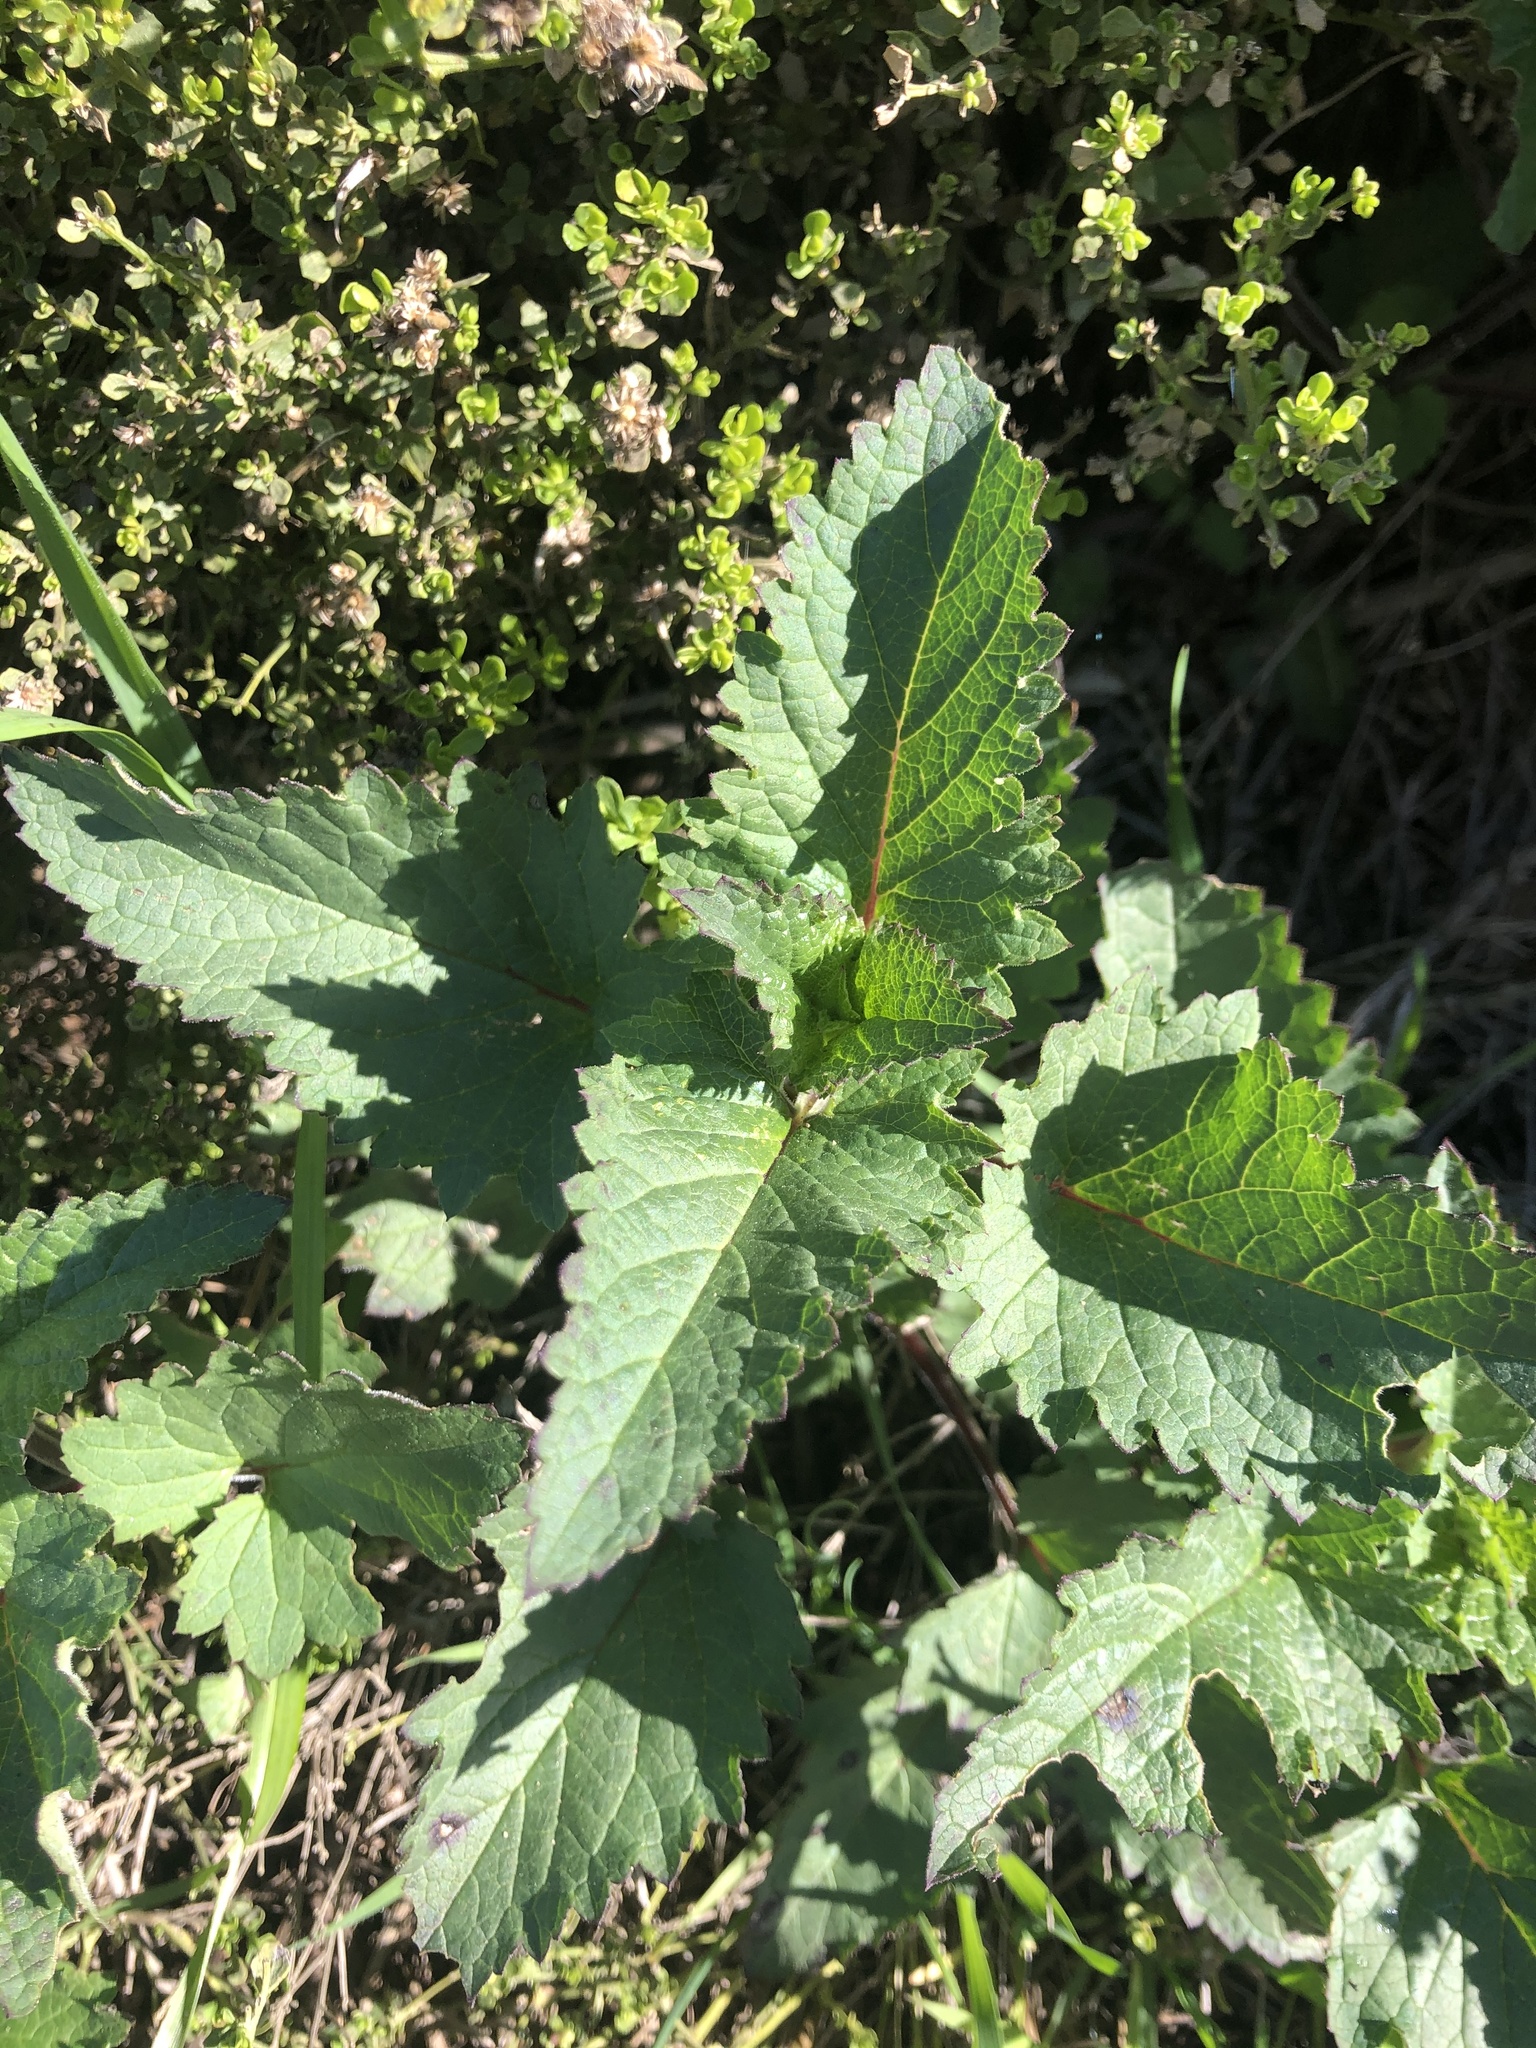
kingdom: Plantae
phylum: Tracheophyta
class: Magnoliopsida
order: Lamiales
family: Scrophulariaceae
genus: Scrophularia
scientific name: Scrophularia californica
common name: California figwort
